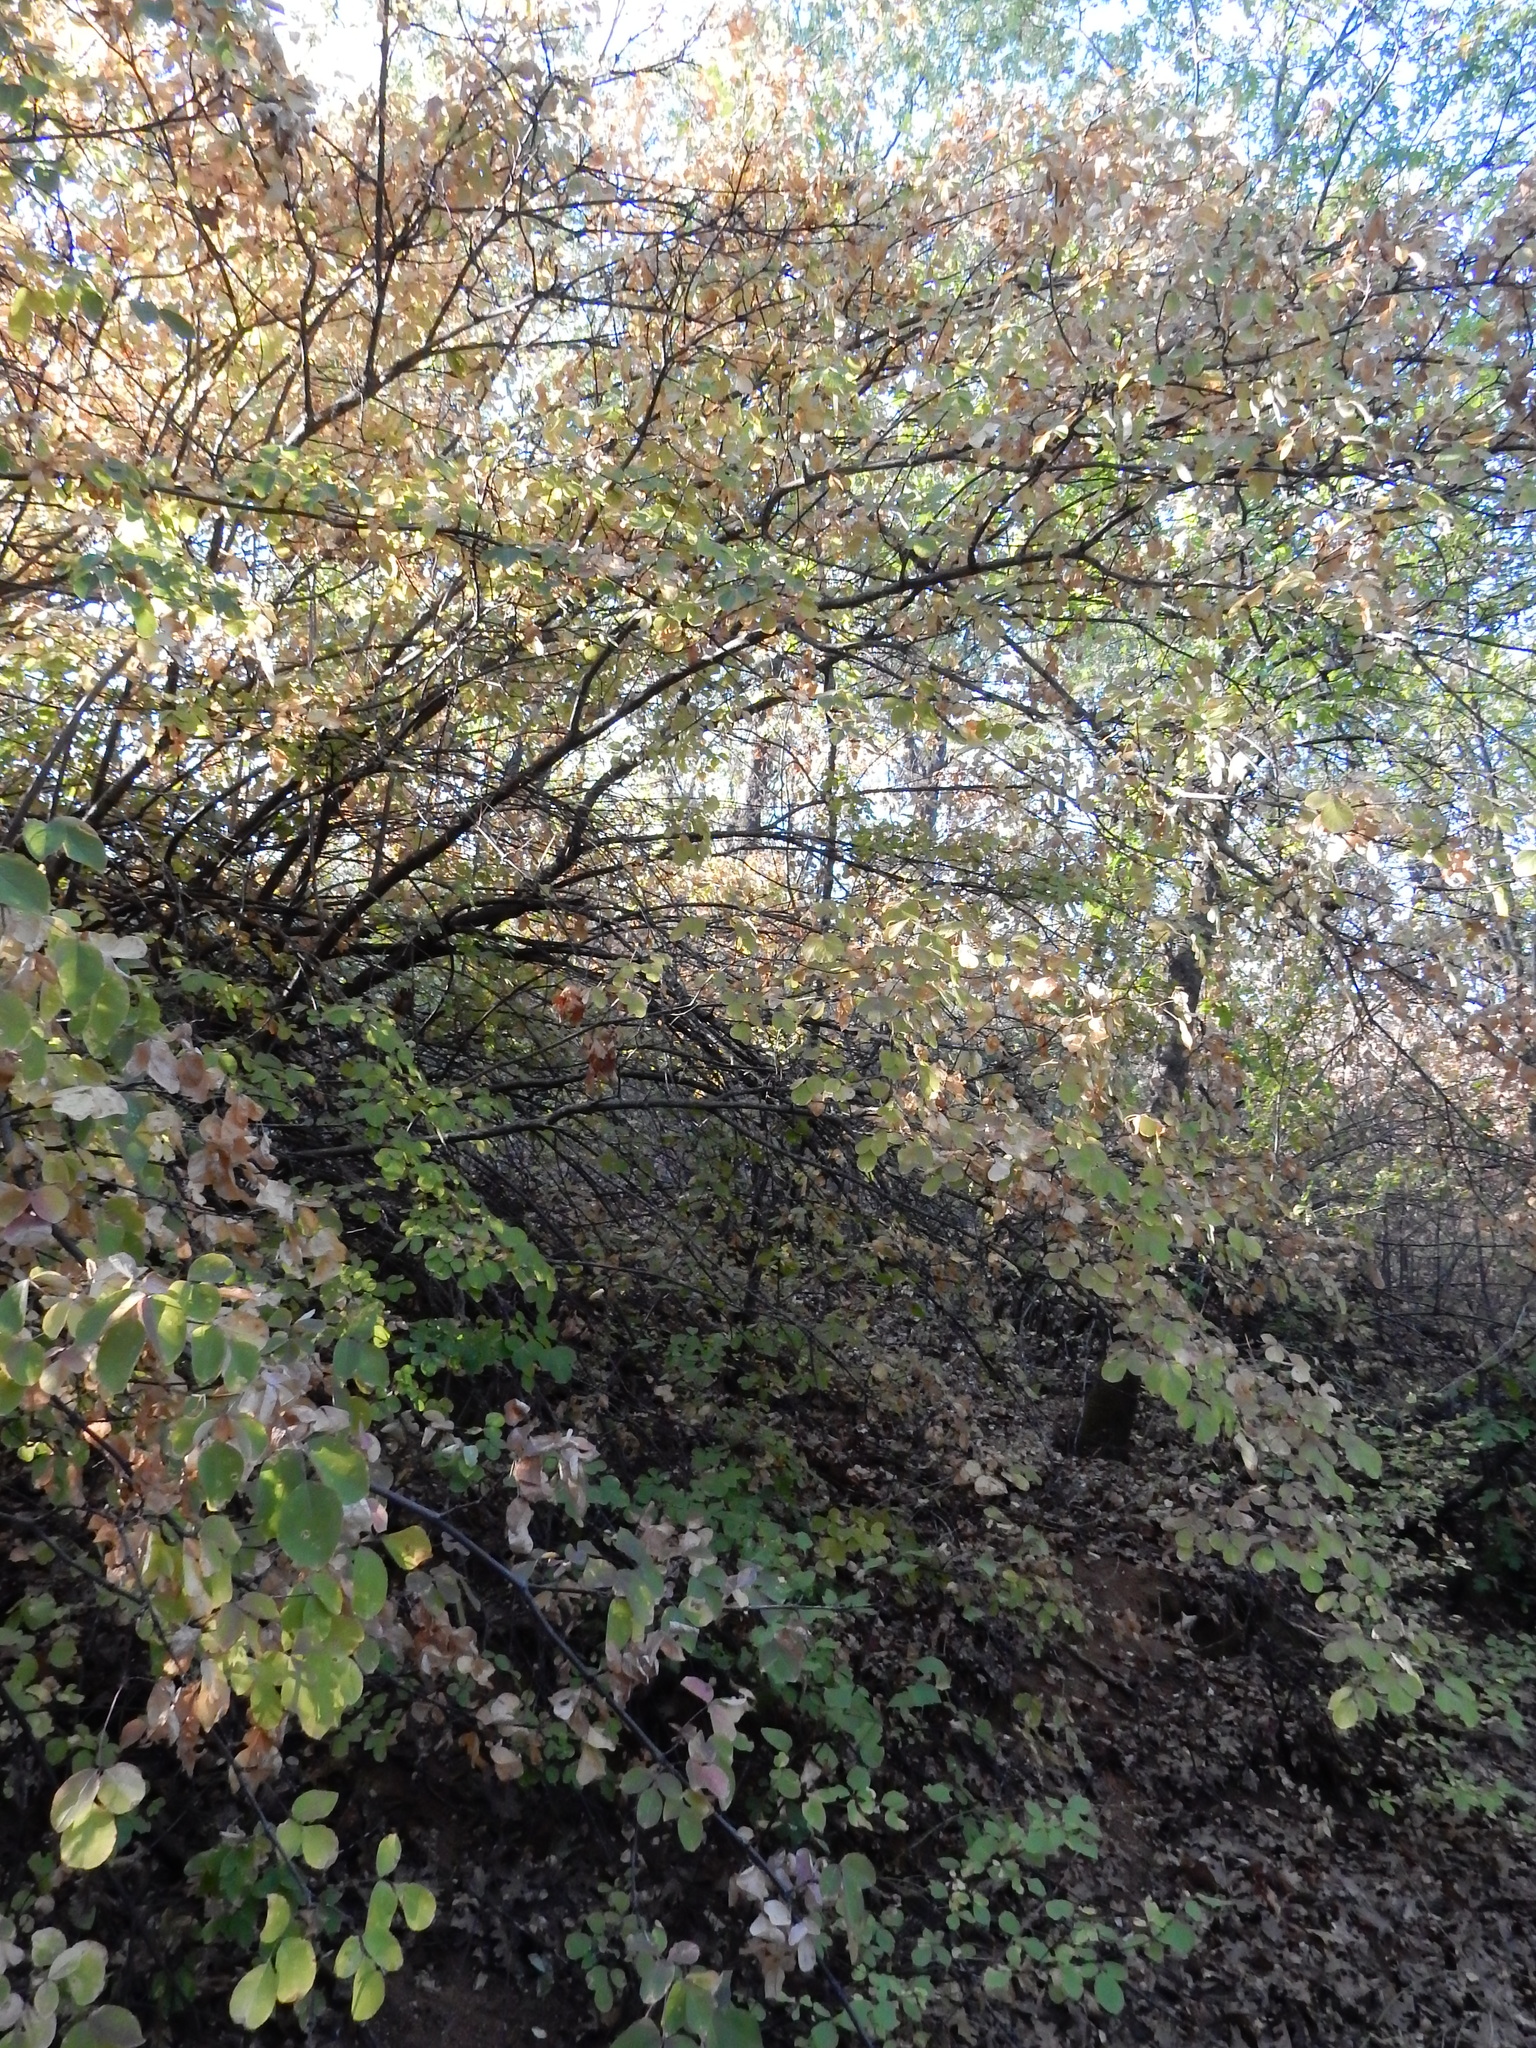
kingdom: Plantae
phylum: Tracheophyta
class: Magnoliopsida
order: Crossosomatales
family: Staphyleaceae
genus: Staphylea
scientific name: Staphylea bolanderi
